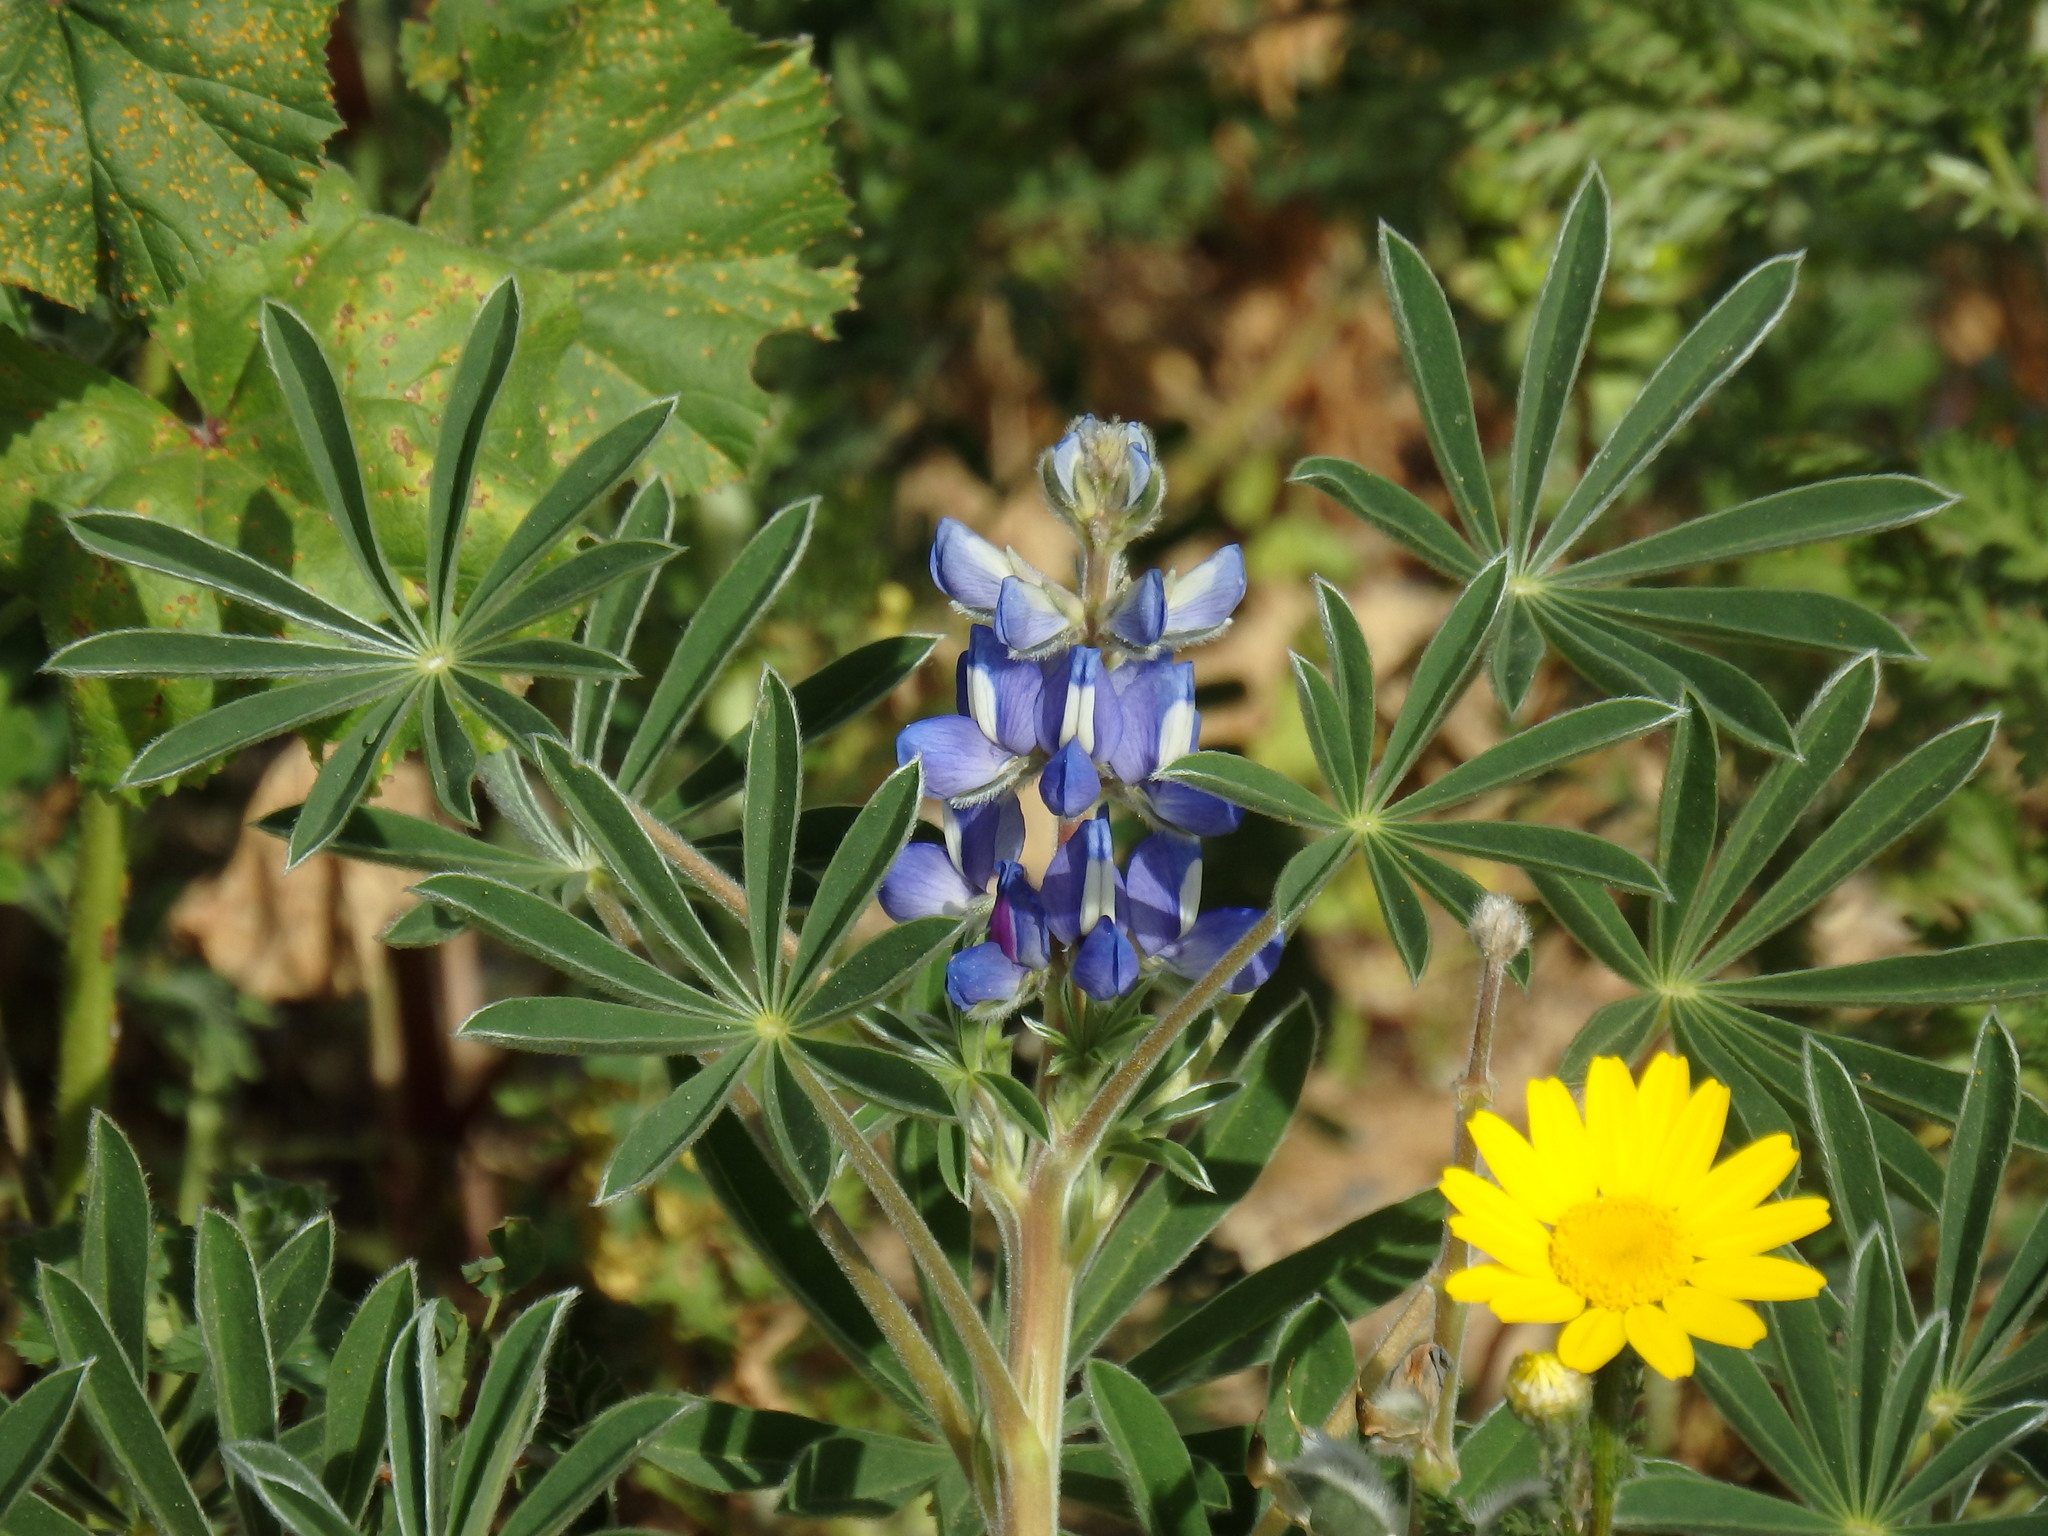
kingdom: Plantae
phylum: Tracheophyta
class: Magnoliopsida
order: Fabales
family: Fabaceae
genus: Lupinus
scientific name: Lupinus cosentinii
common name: Hairy blue lupin
